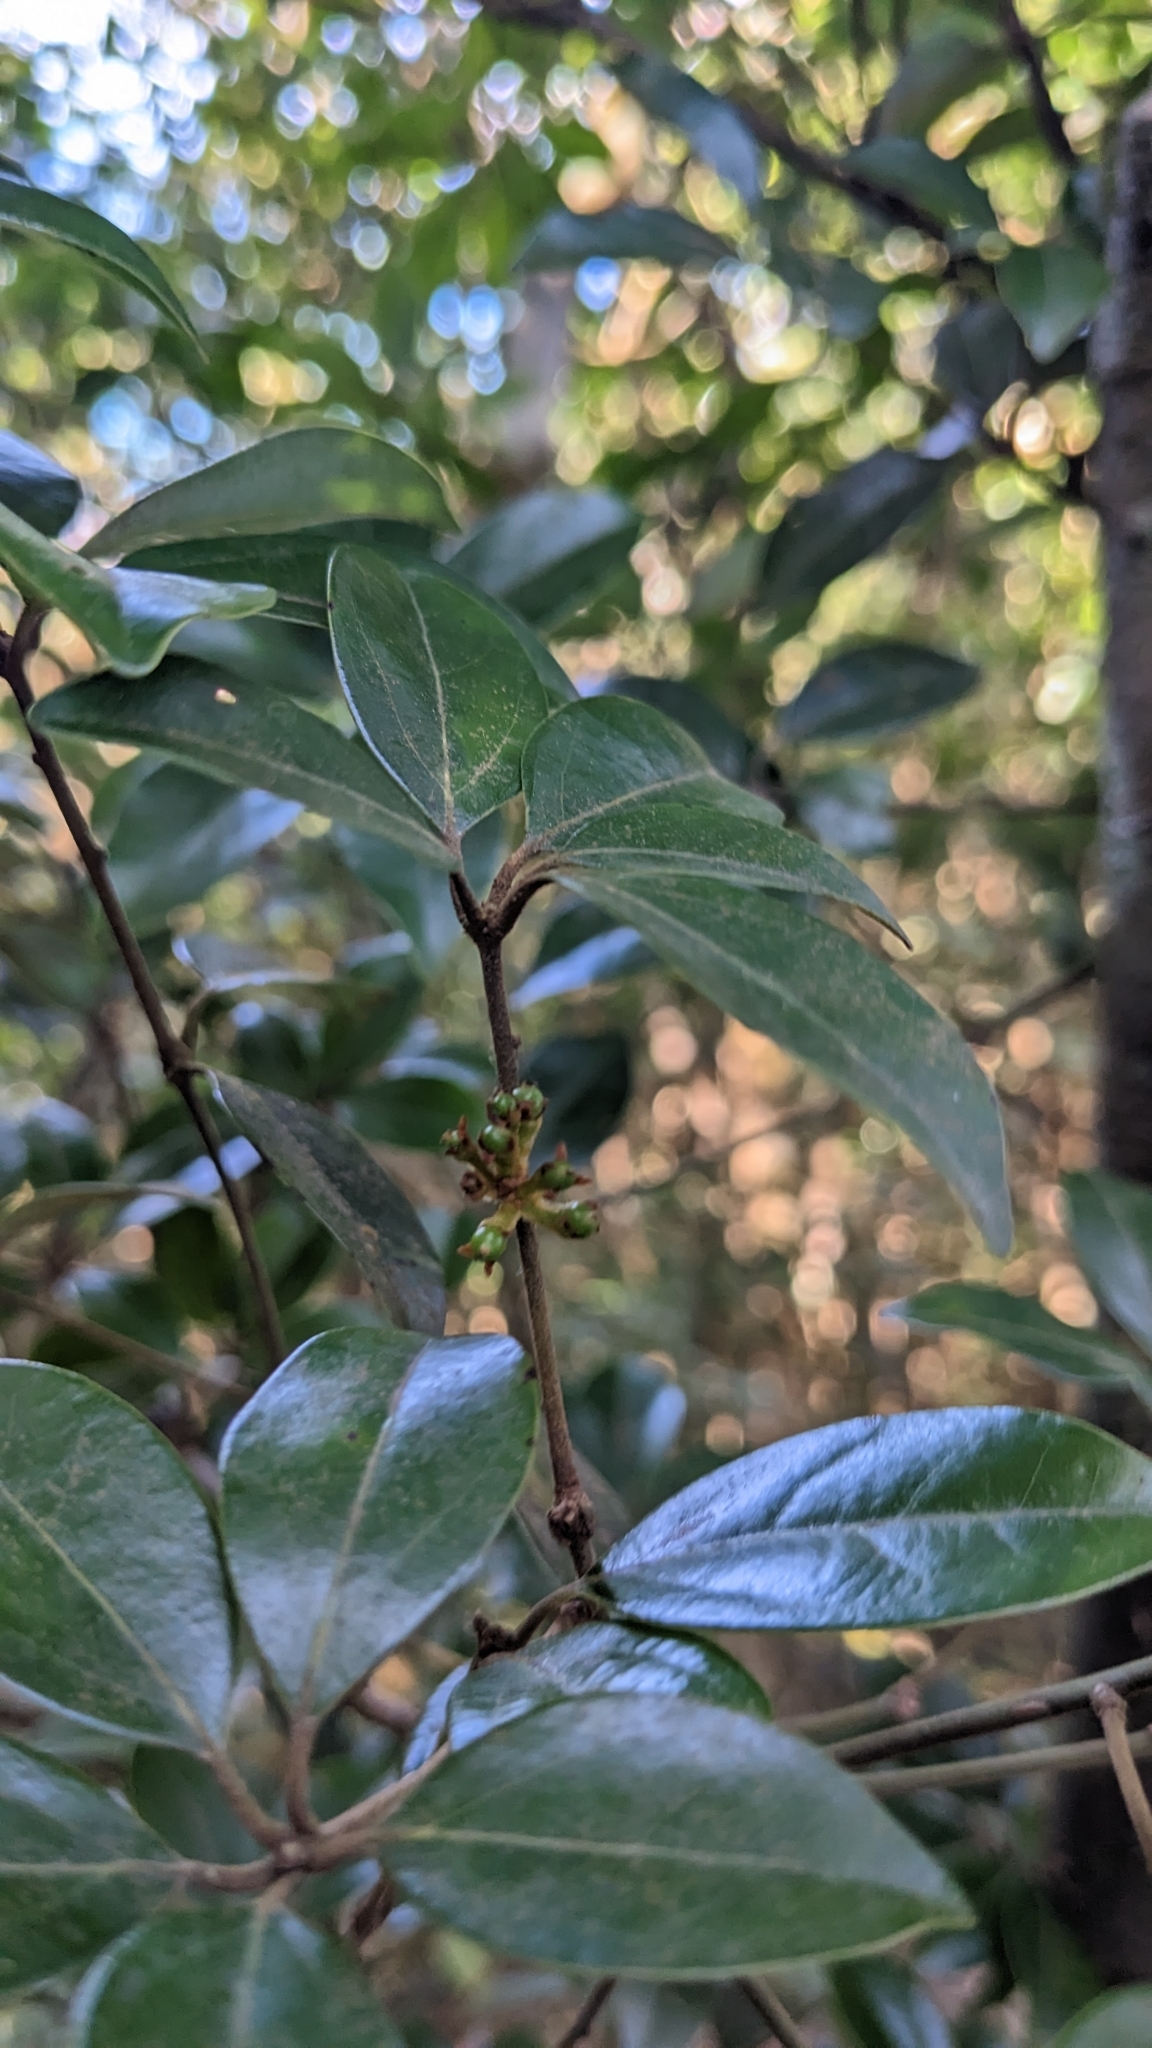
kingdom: Plantae
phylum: Tracheophyta
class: Magnoliopsida
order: Laurales
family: Lauraceae
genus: Neolitsea
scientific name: Neolitsea buisanensis
